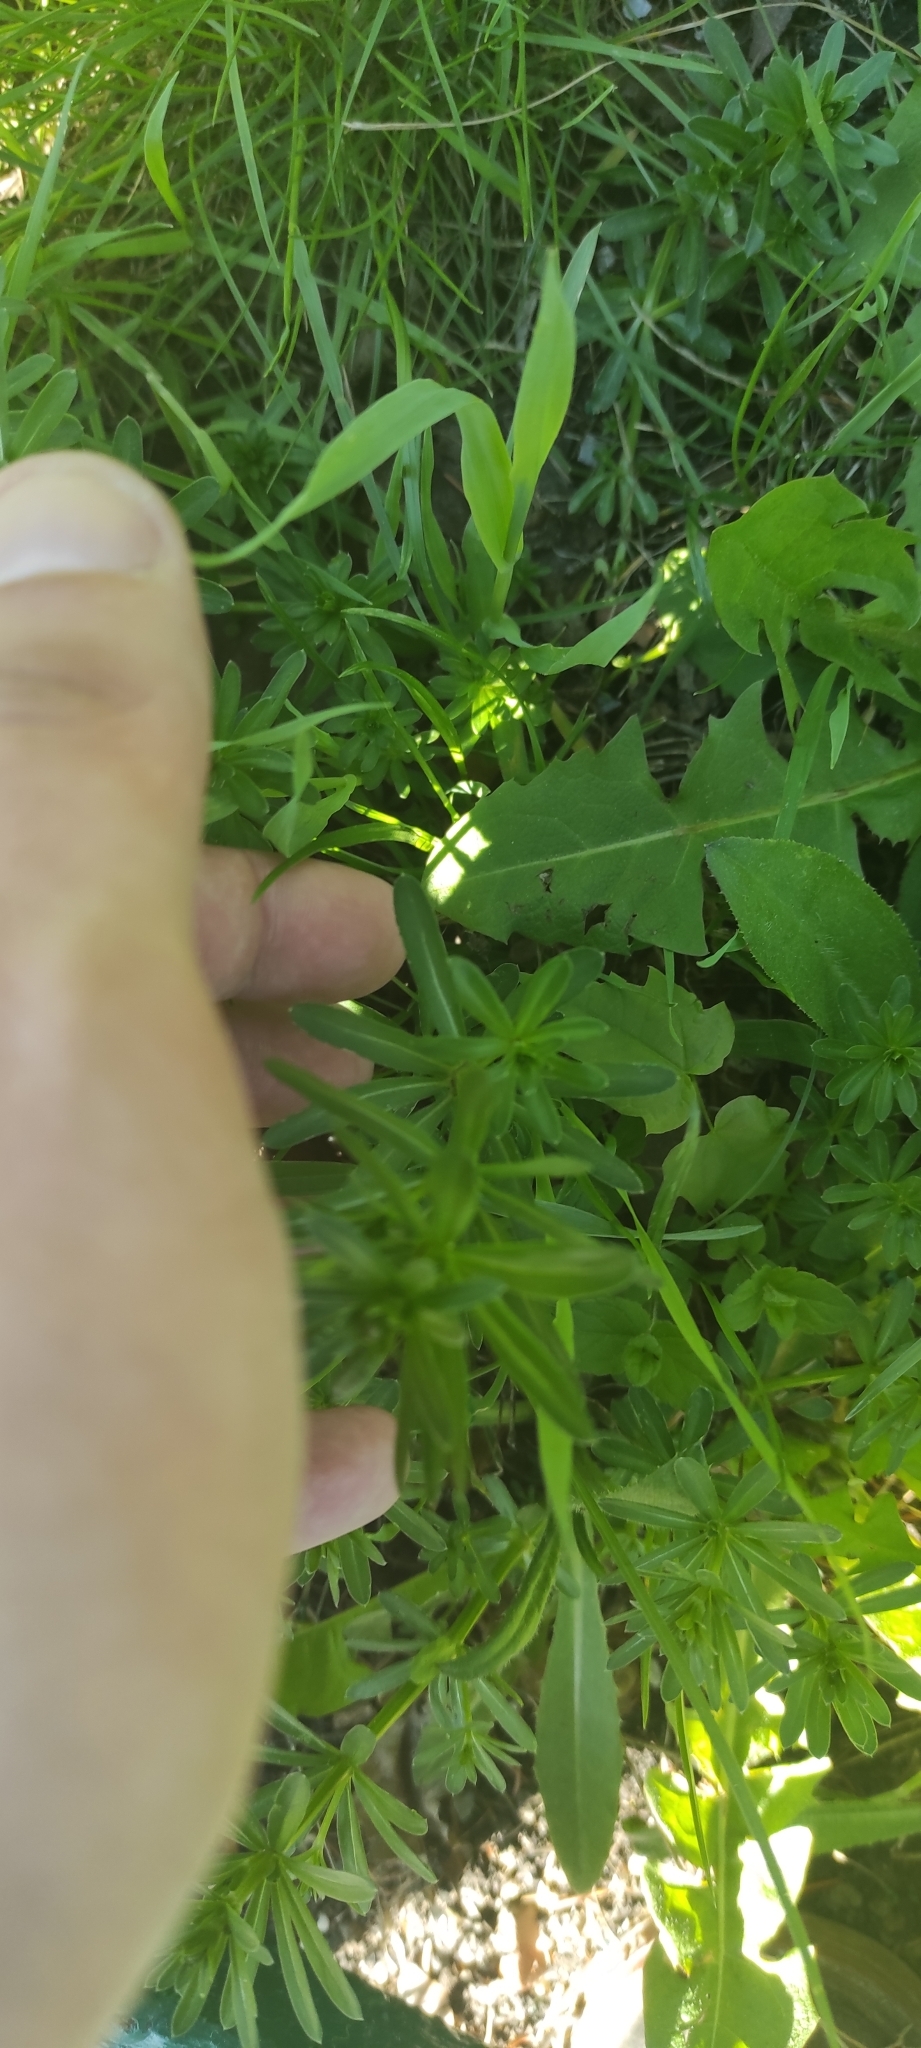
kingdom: Plantae
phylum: Tracheophyta
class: Magnoliopsida
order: Gentianales
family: Rubiaceae
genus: Galium
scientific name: Galium mollugo
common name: Hedge bedstraw
